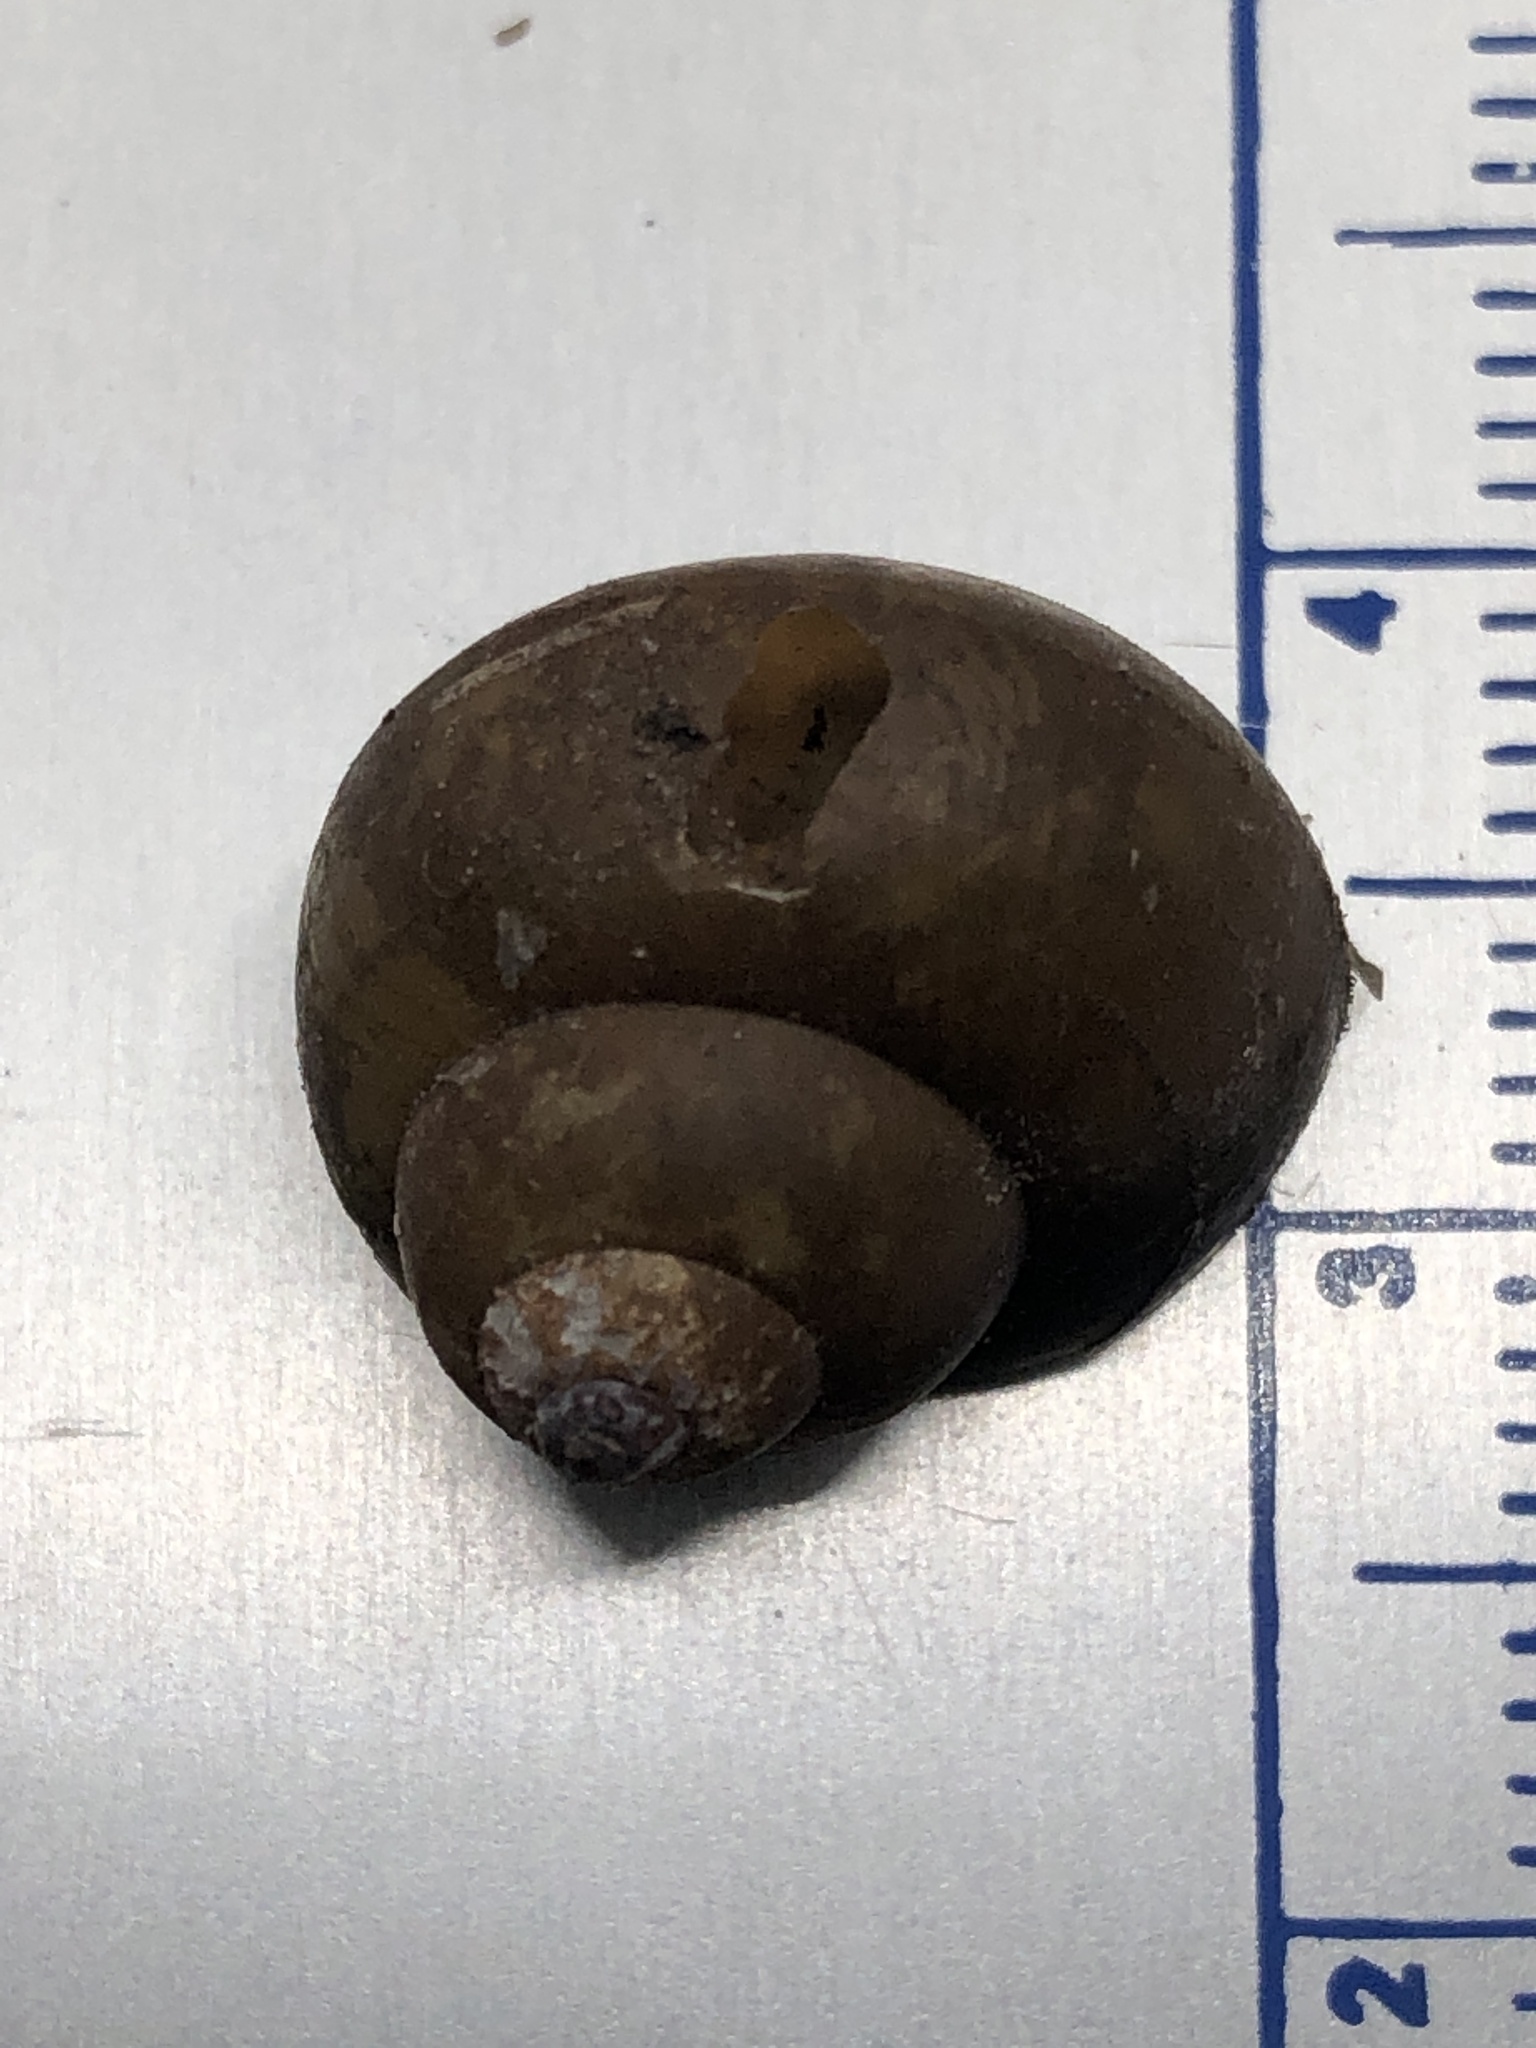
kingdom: Animalia
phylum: Mollusca
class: Gastropoda
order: Architaenioglossa
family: Viviparidae
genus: Cipangopaludina
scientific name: Cipangopaludina chinensis
